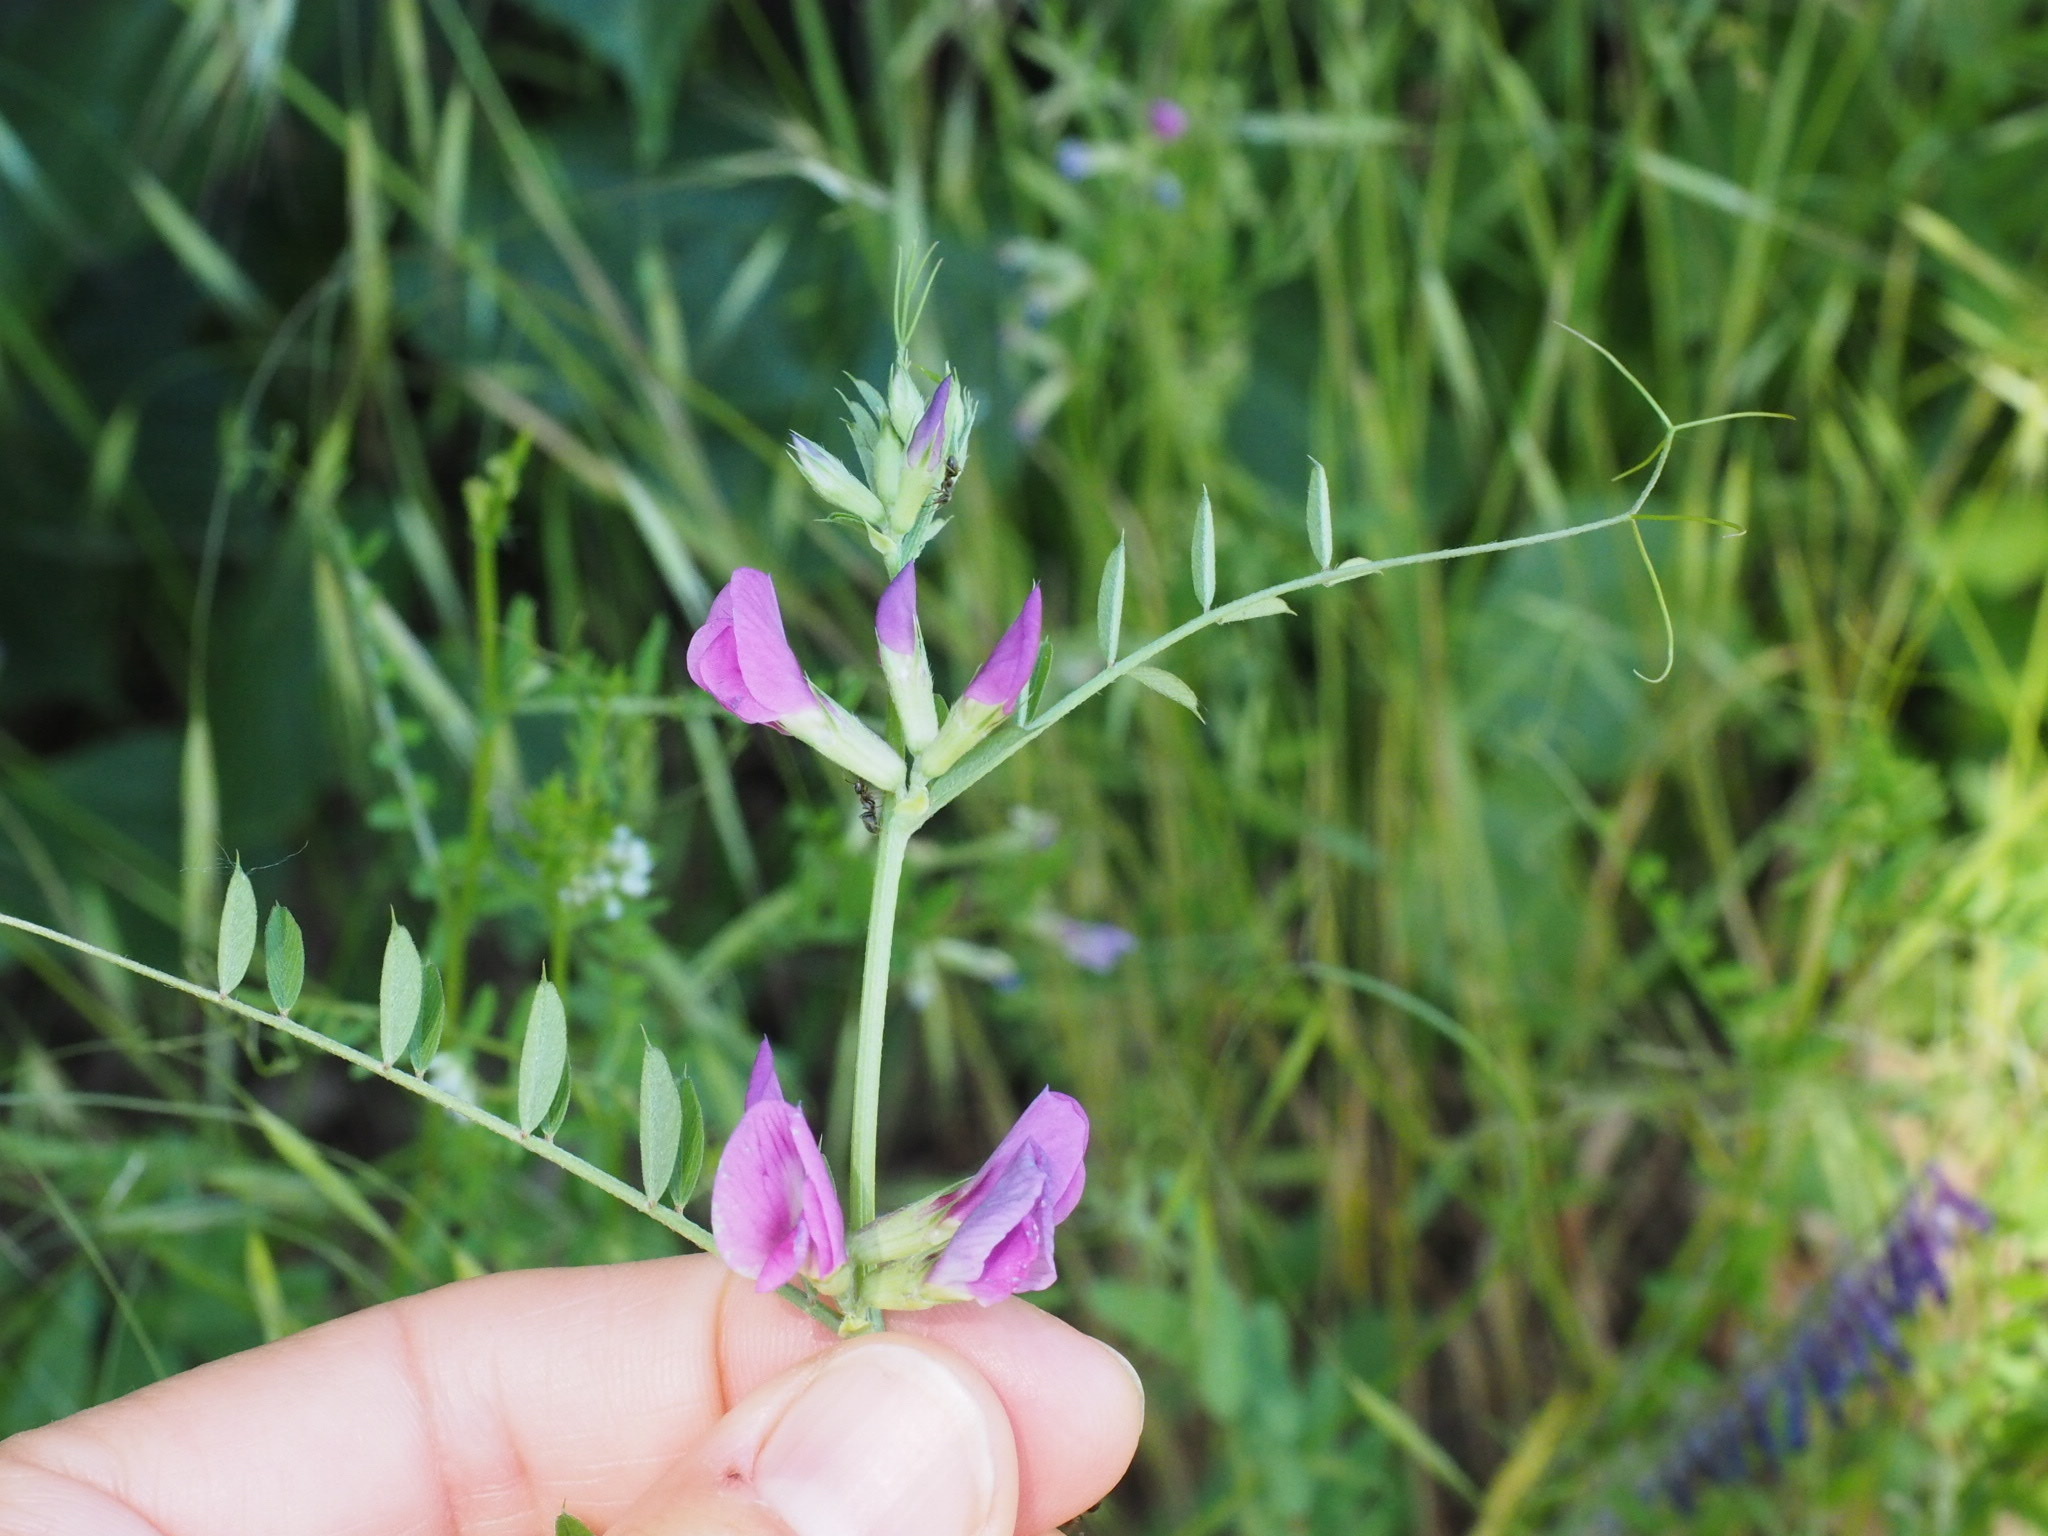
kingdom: Plantae
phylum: Tracheophyta
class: Magnoliopsida
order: Fabales
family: Fabaceae
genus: Vicia
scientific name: Vicia sativa
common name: Garden vetch
